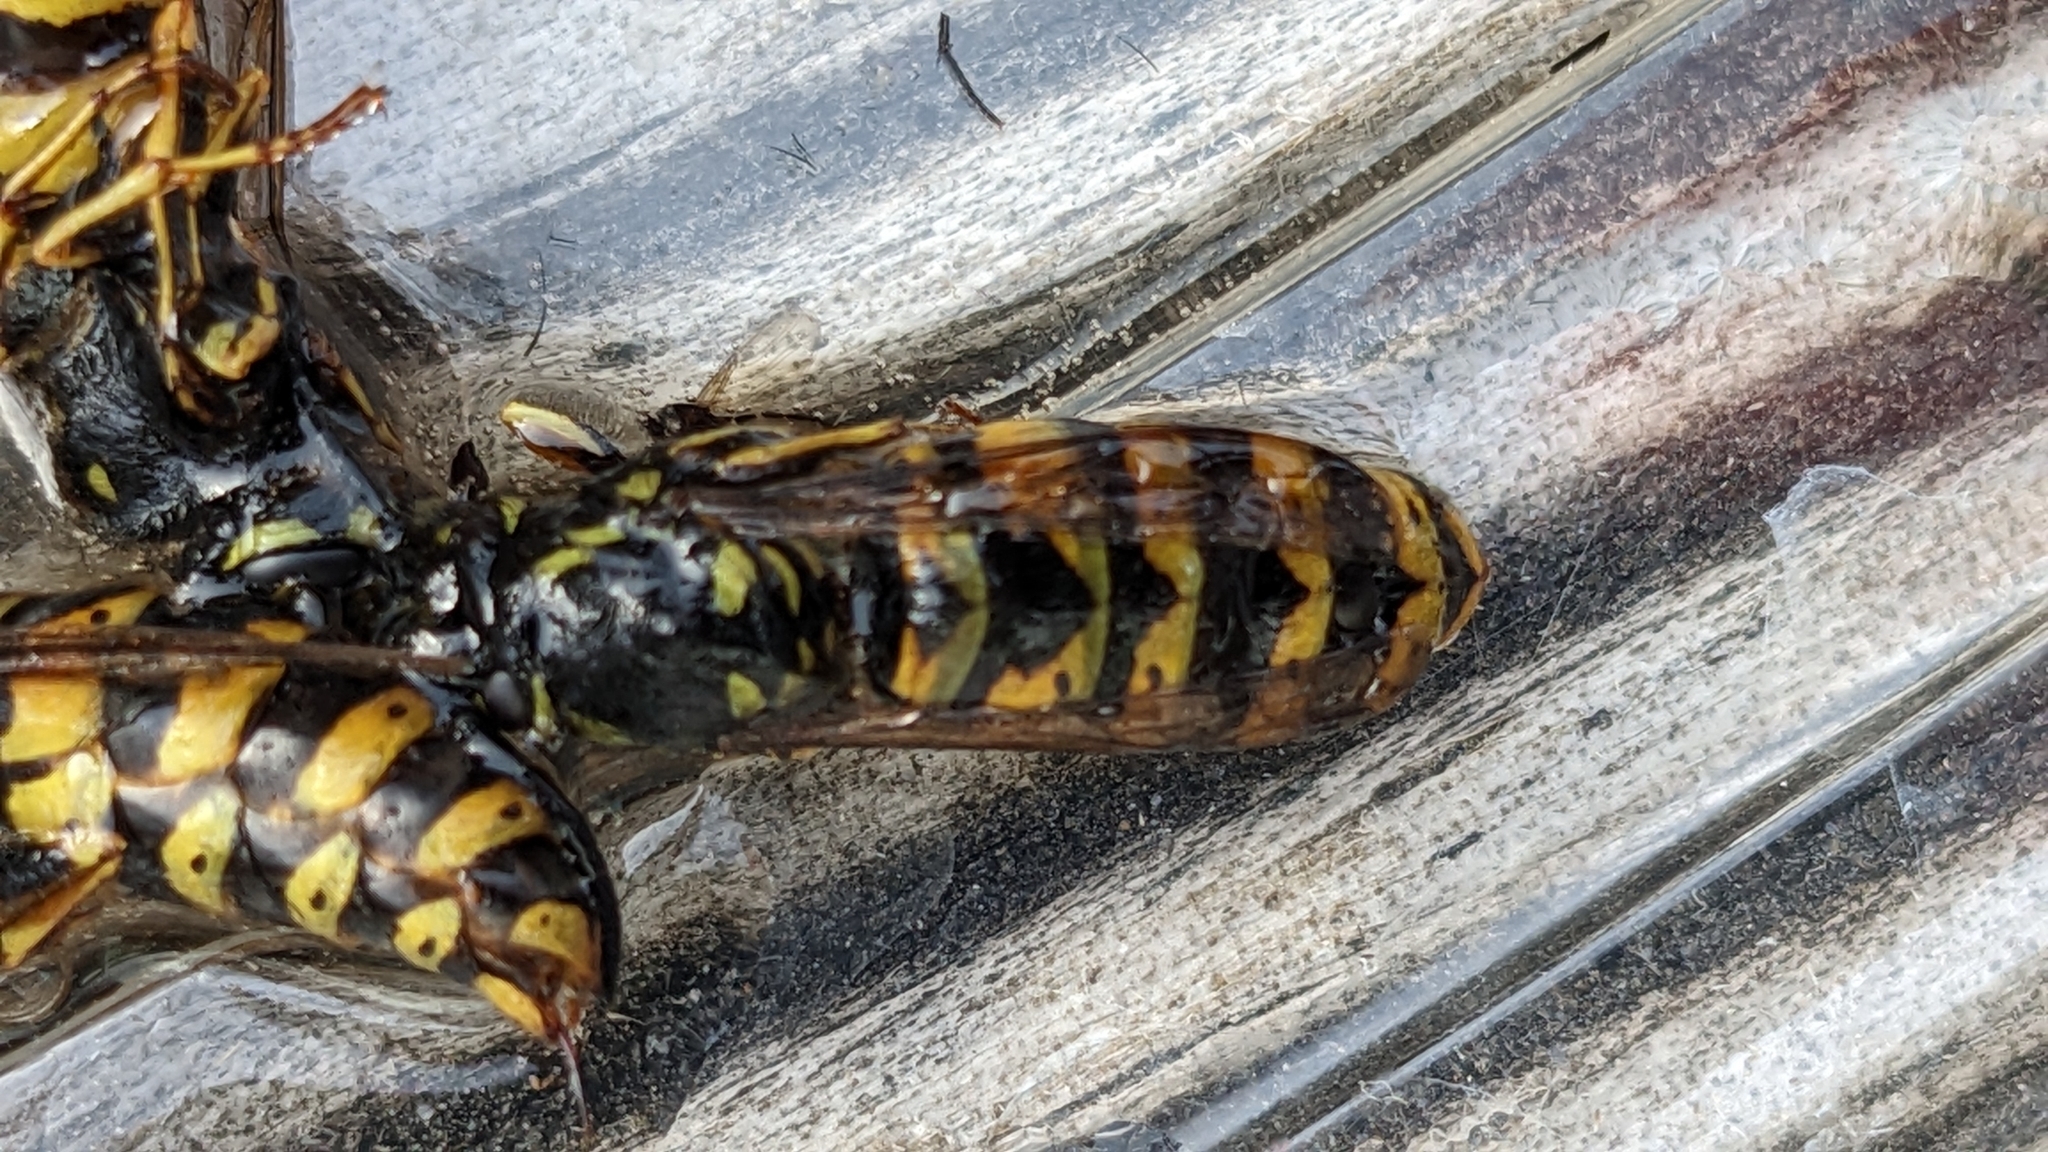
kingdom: Animalia
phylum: Arthropoda
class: Insecta
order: Hymenoptera
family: Vespidae
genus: Vespula
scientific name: Vespula vulgaris
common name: Common wasp
